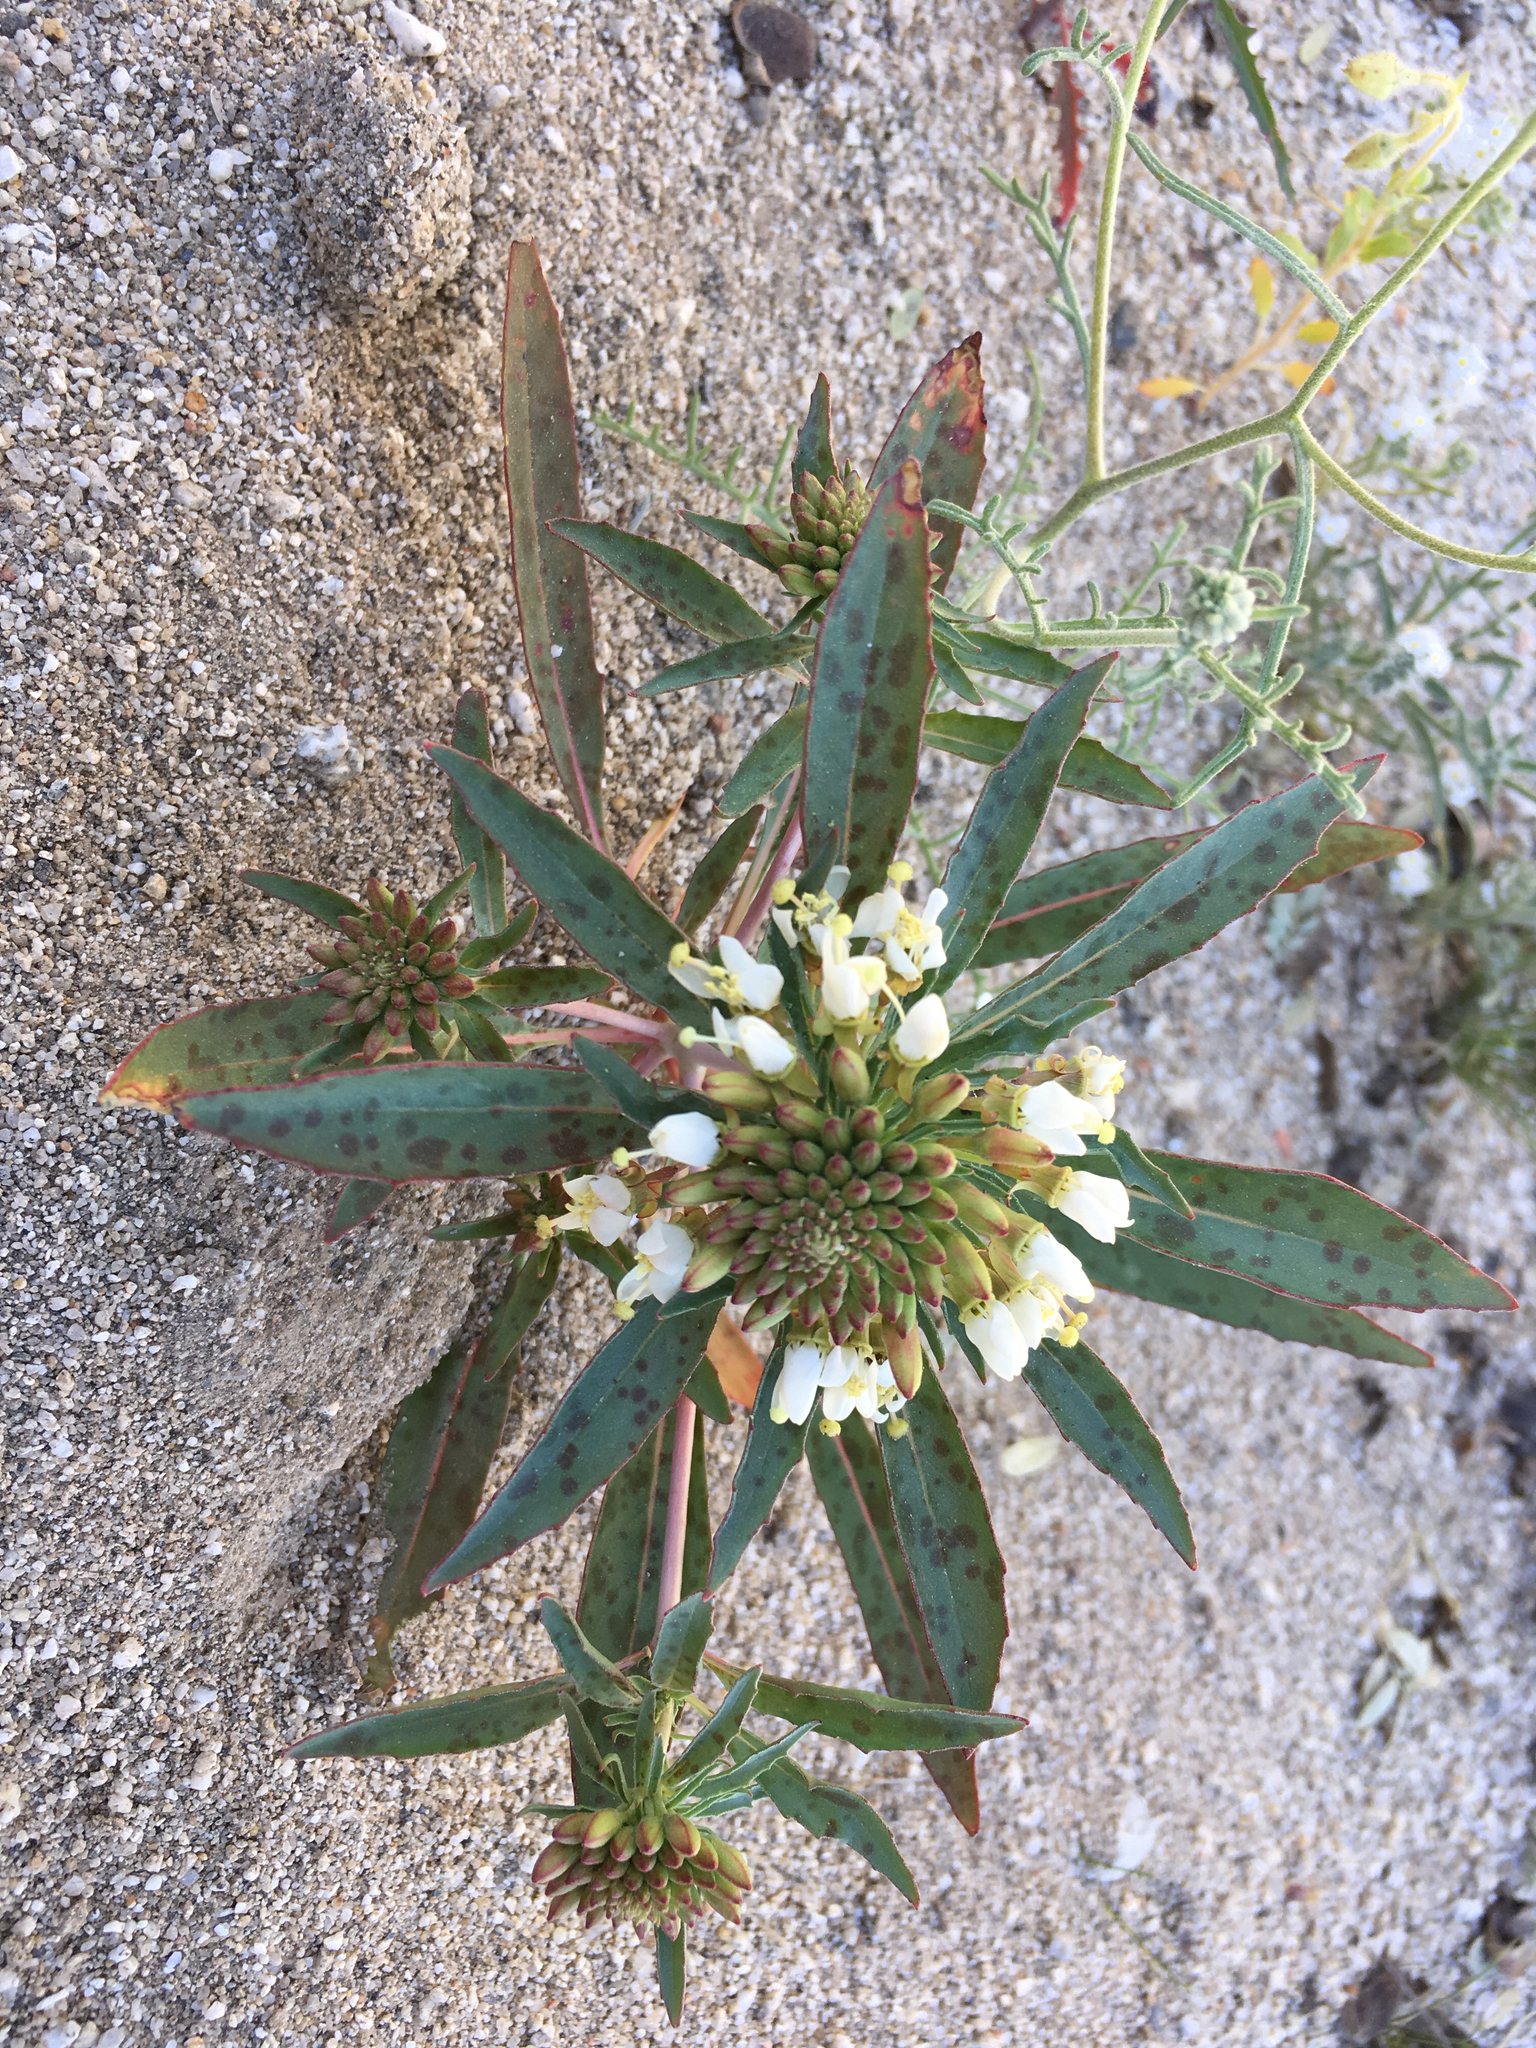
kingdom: Plantae
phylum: Tracheophyta
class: Magnoliopsida
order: Myrtales
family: Onagraceae
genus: Eremothera
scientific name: Eremothera boothii
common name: Booth's evening primrose
